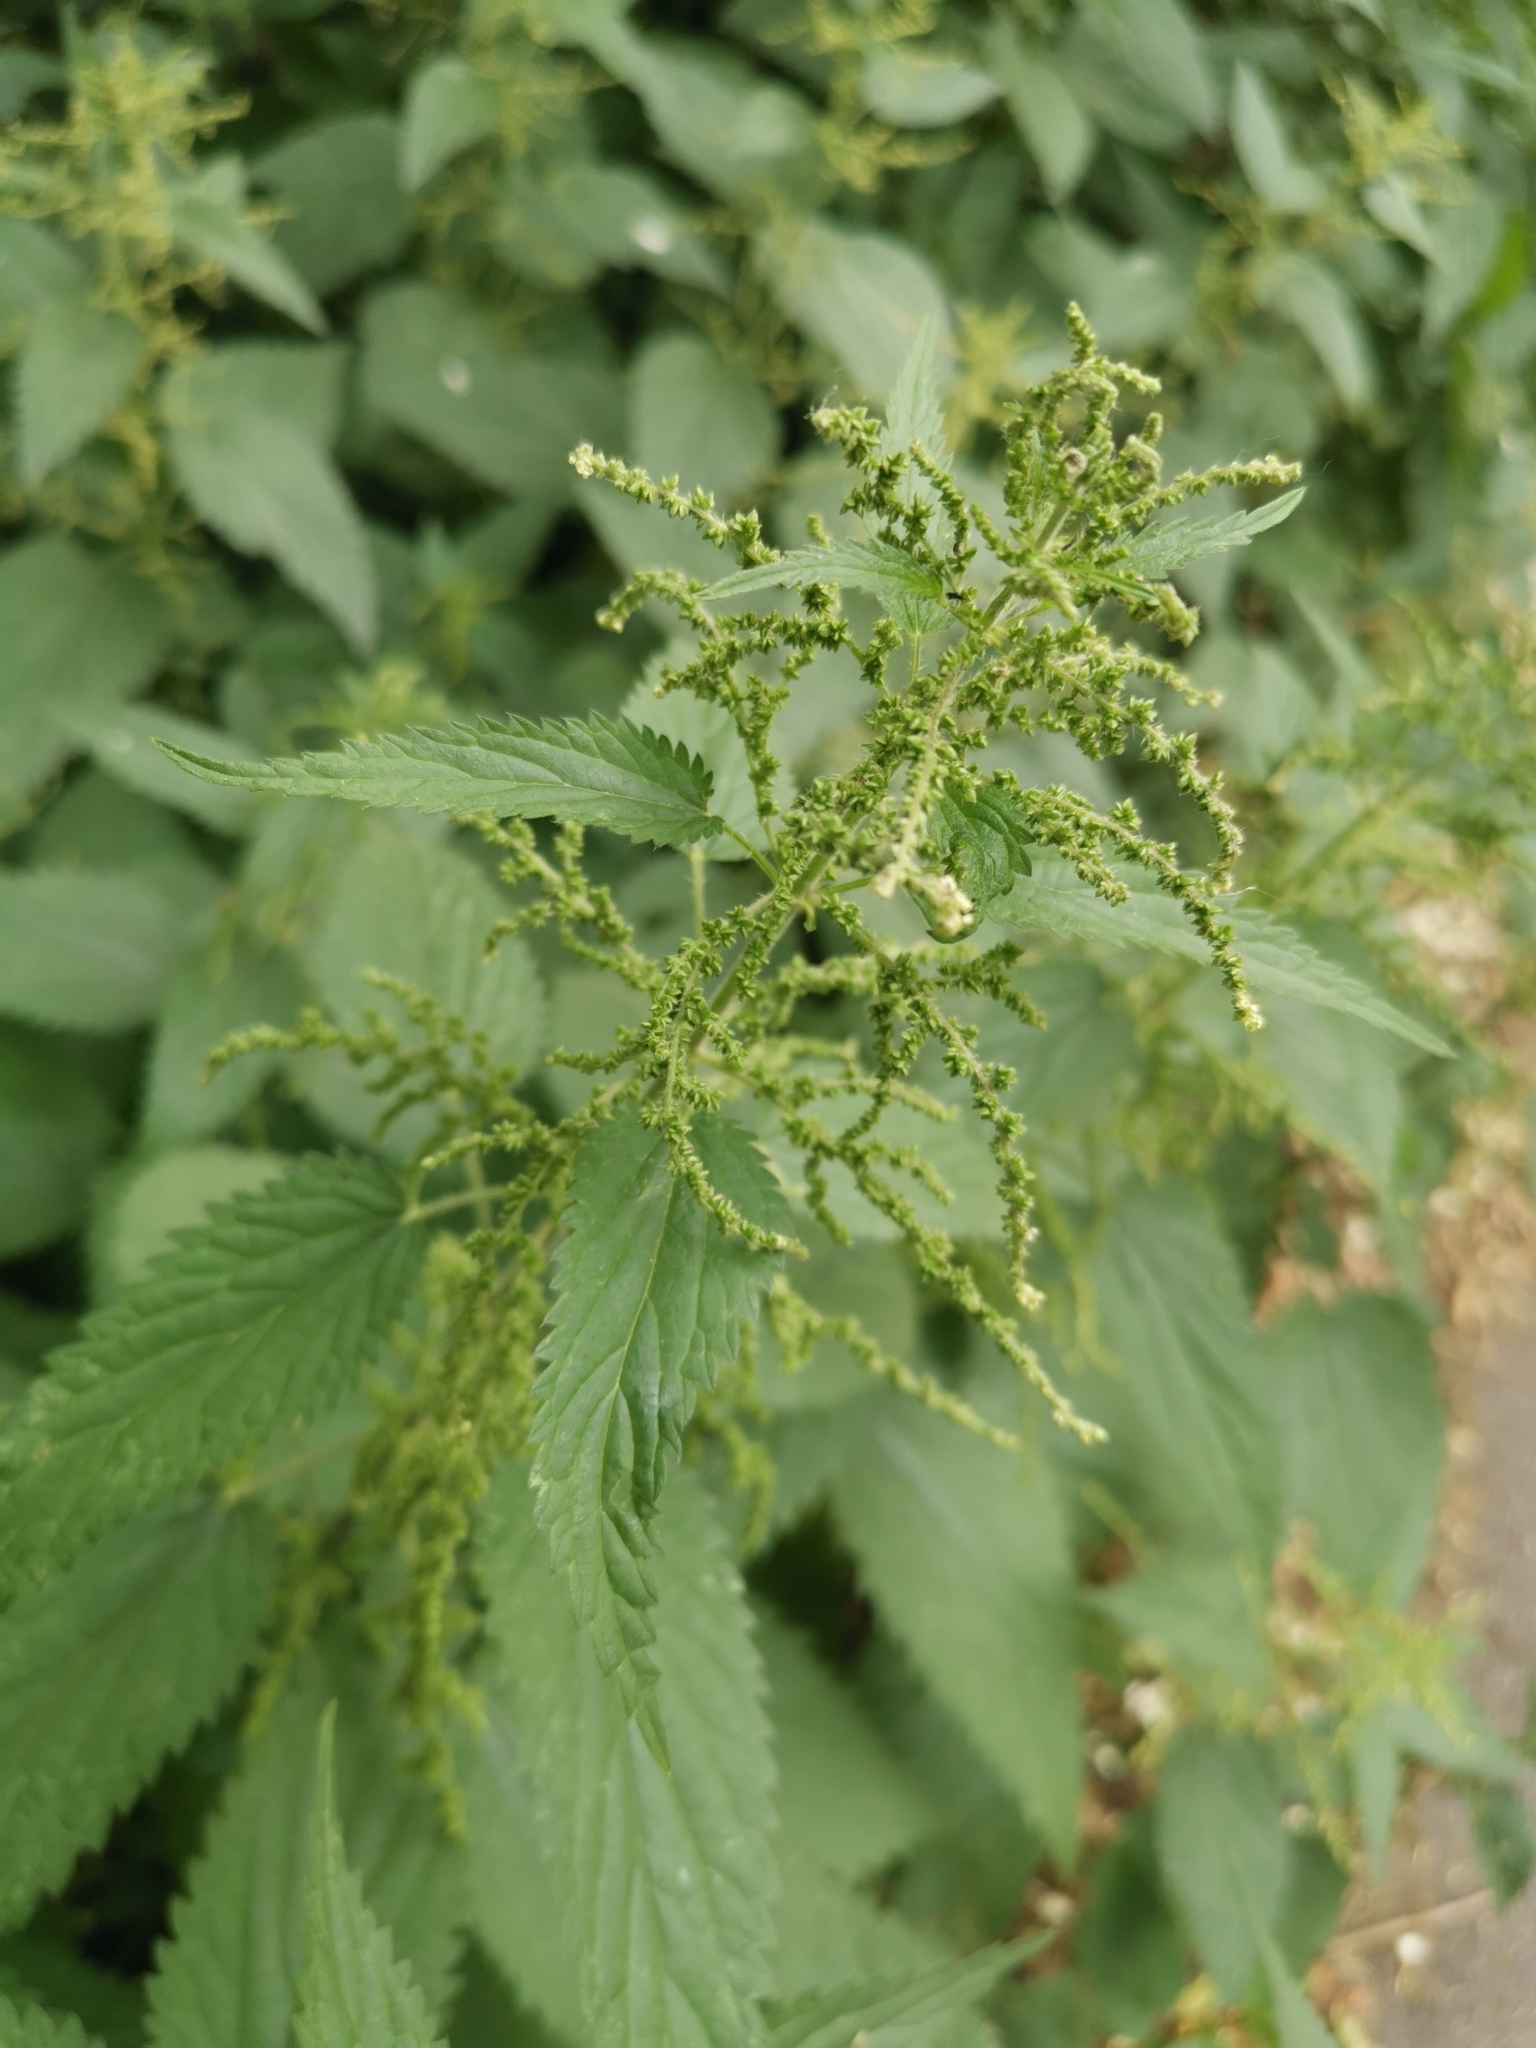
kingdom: Plantae
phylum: Tracheophyta
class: Magnoliopsida
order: Rosales
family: Urticaceae
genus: Urtica
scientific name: Urtica dioica
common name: Common nettle
